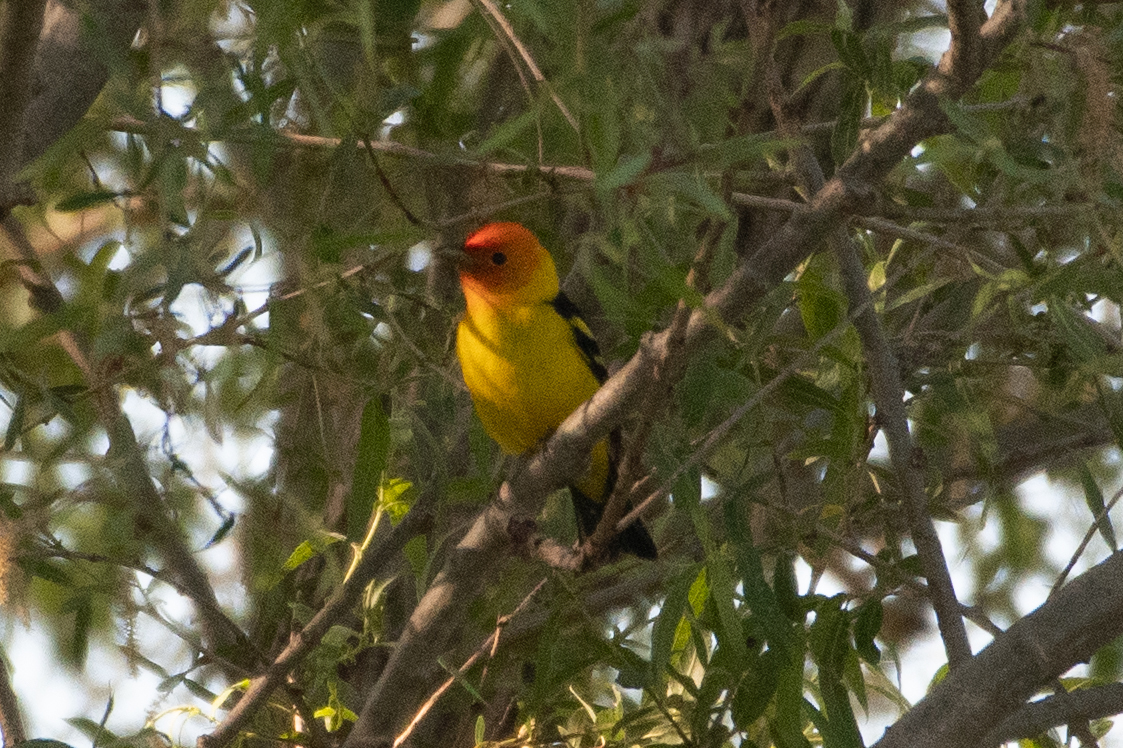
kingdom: Animalia
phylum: Chordata
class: Aves
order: Passeriformes
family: Cardinalidae
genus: Piranga
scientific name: Piranga ludoviciana
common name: Western tanager
